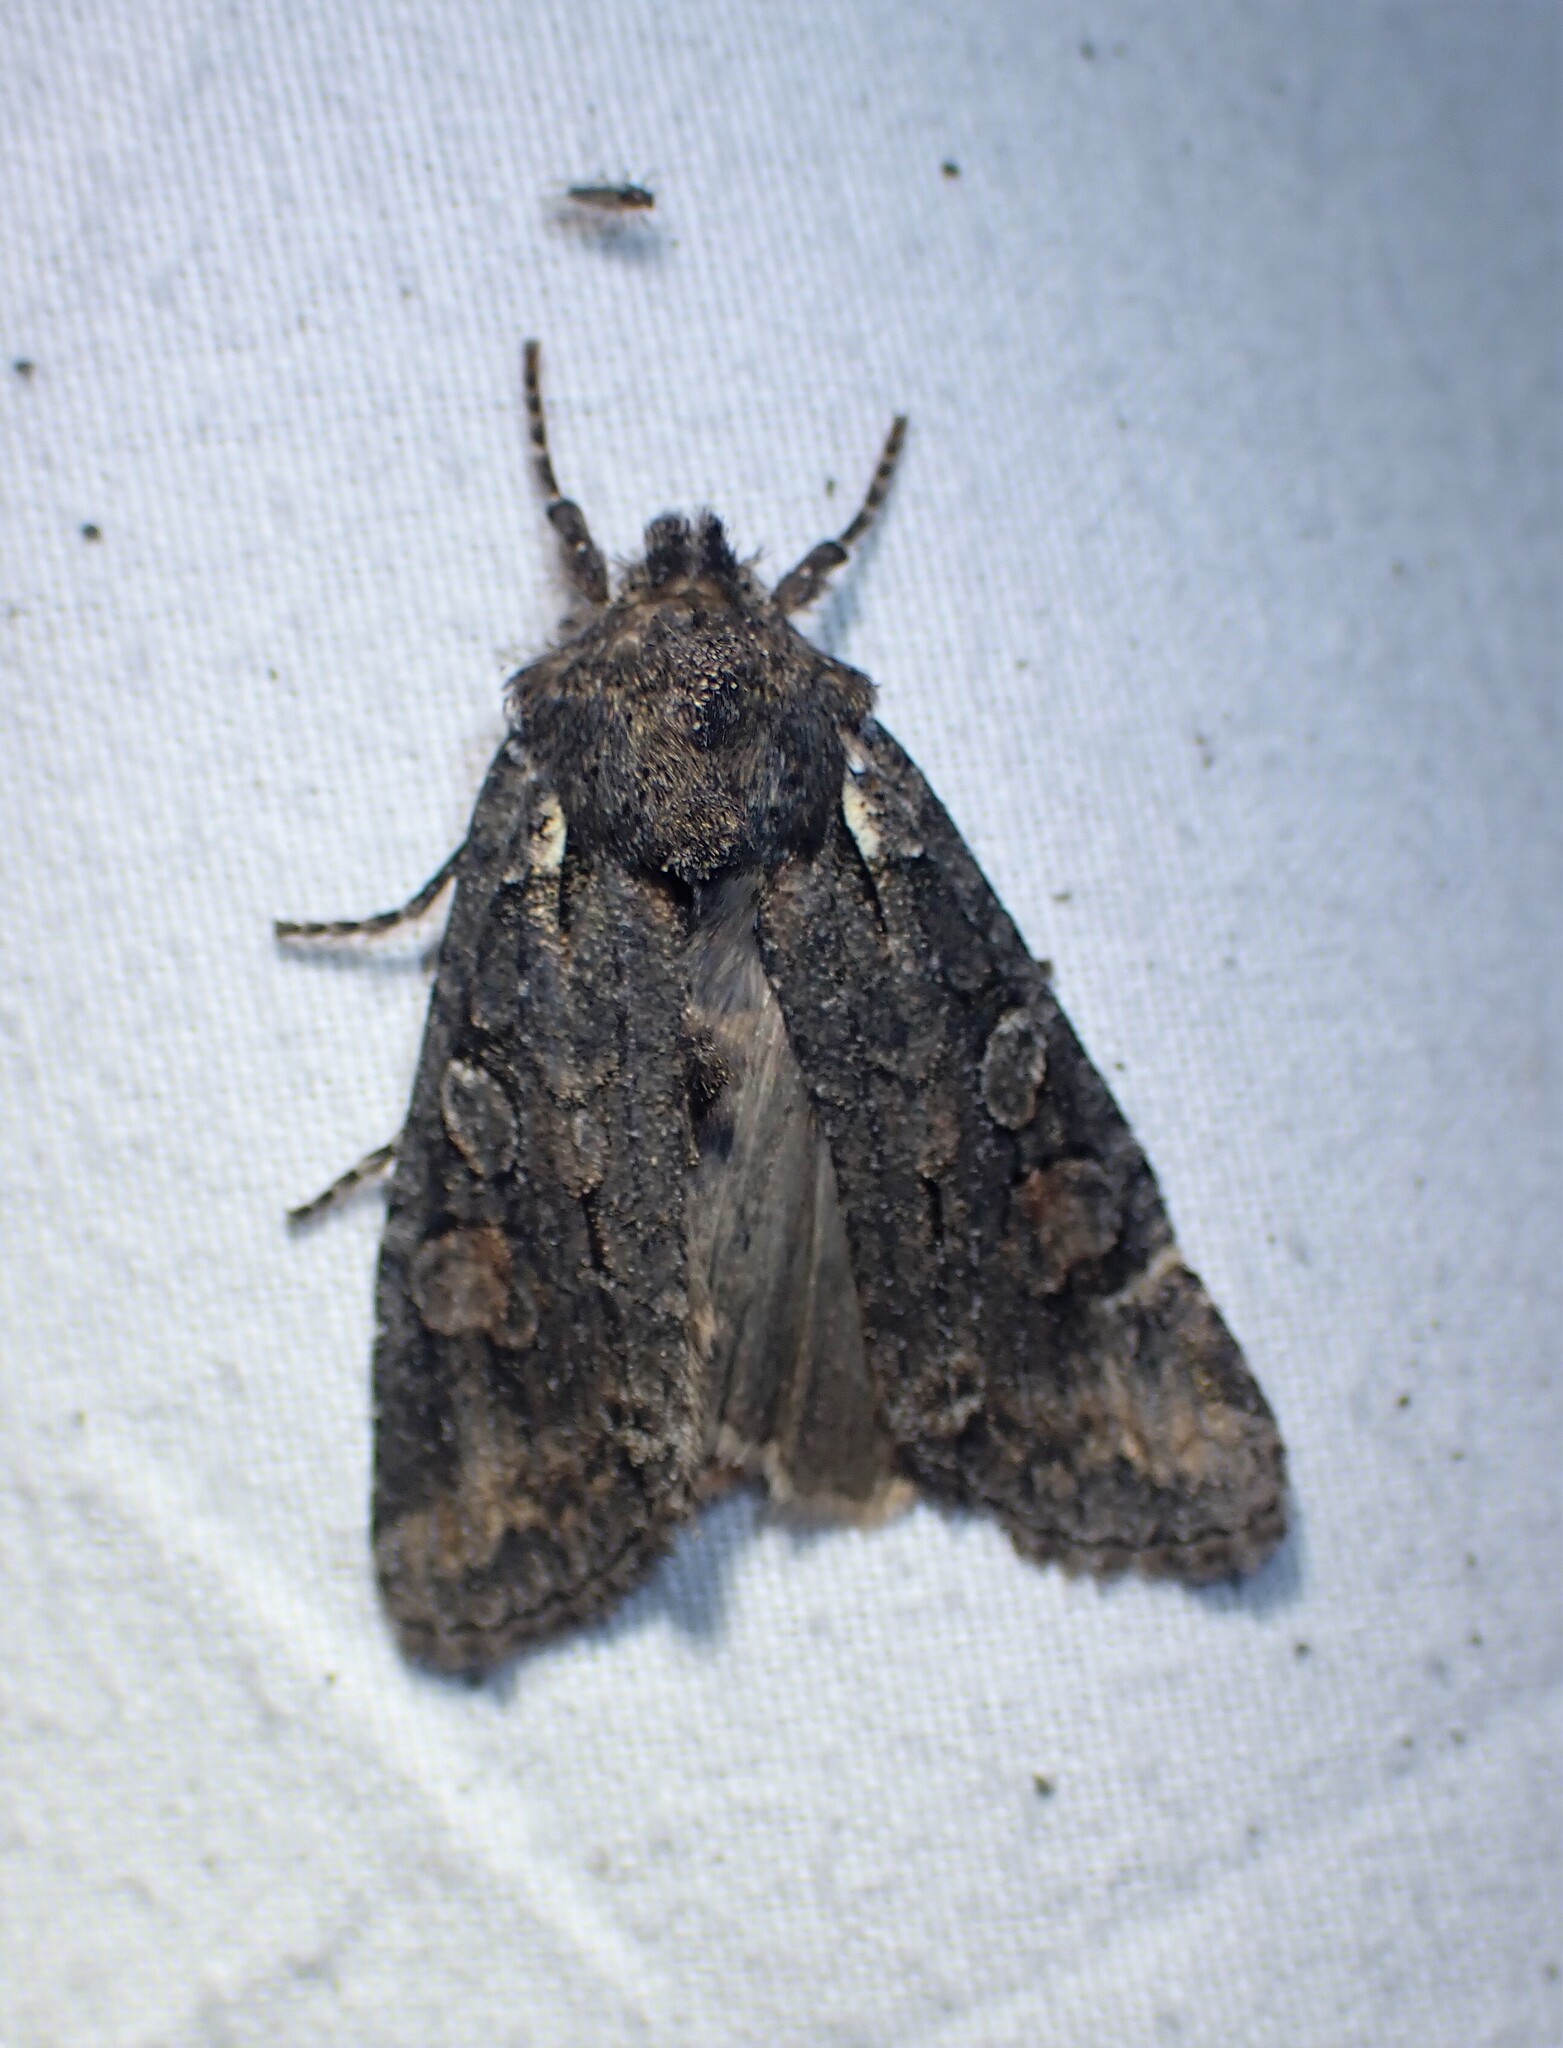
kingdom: Animalia
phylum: Arthropoda
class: Insecta
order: Lepidoptera
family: Noctuidae
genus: Lithophane
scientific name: Lithophane pexata
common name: Plush-naped pinion moth
